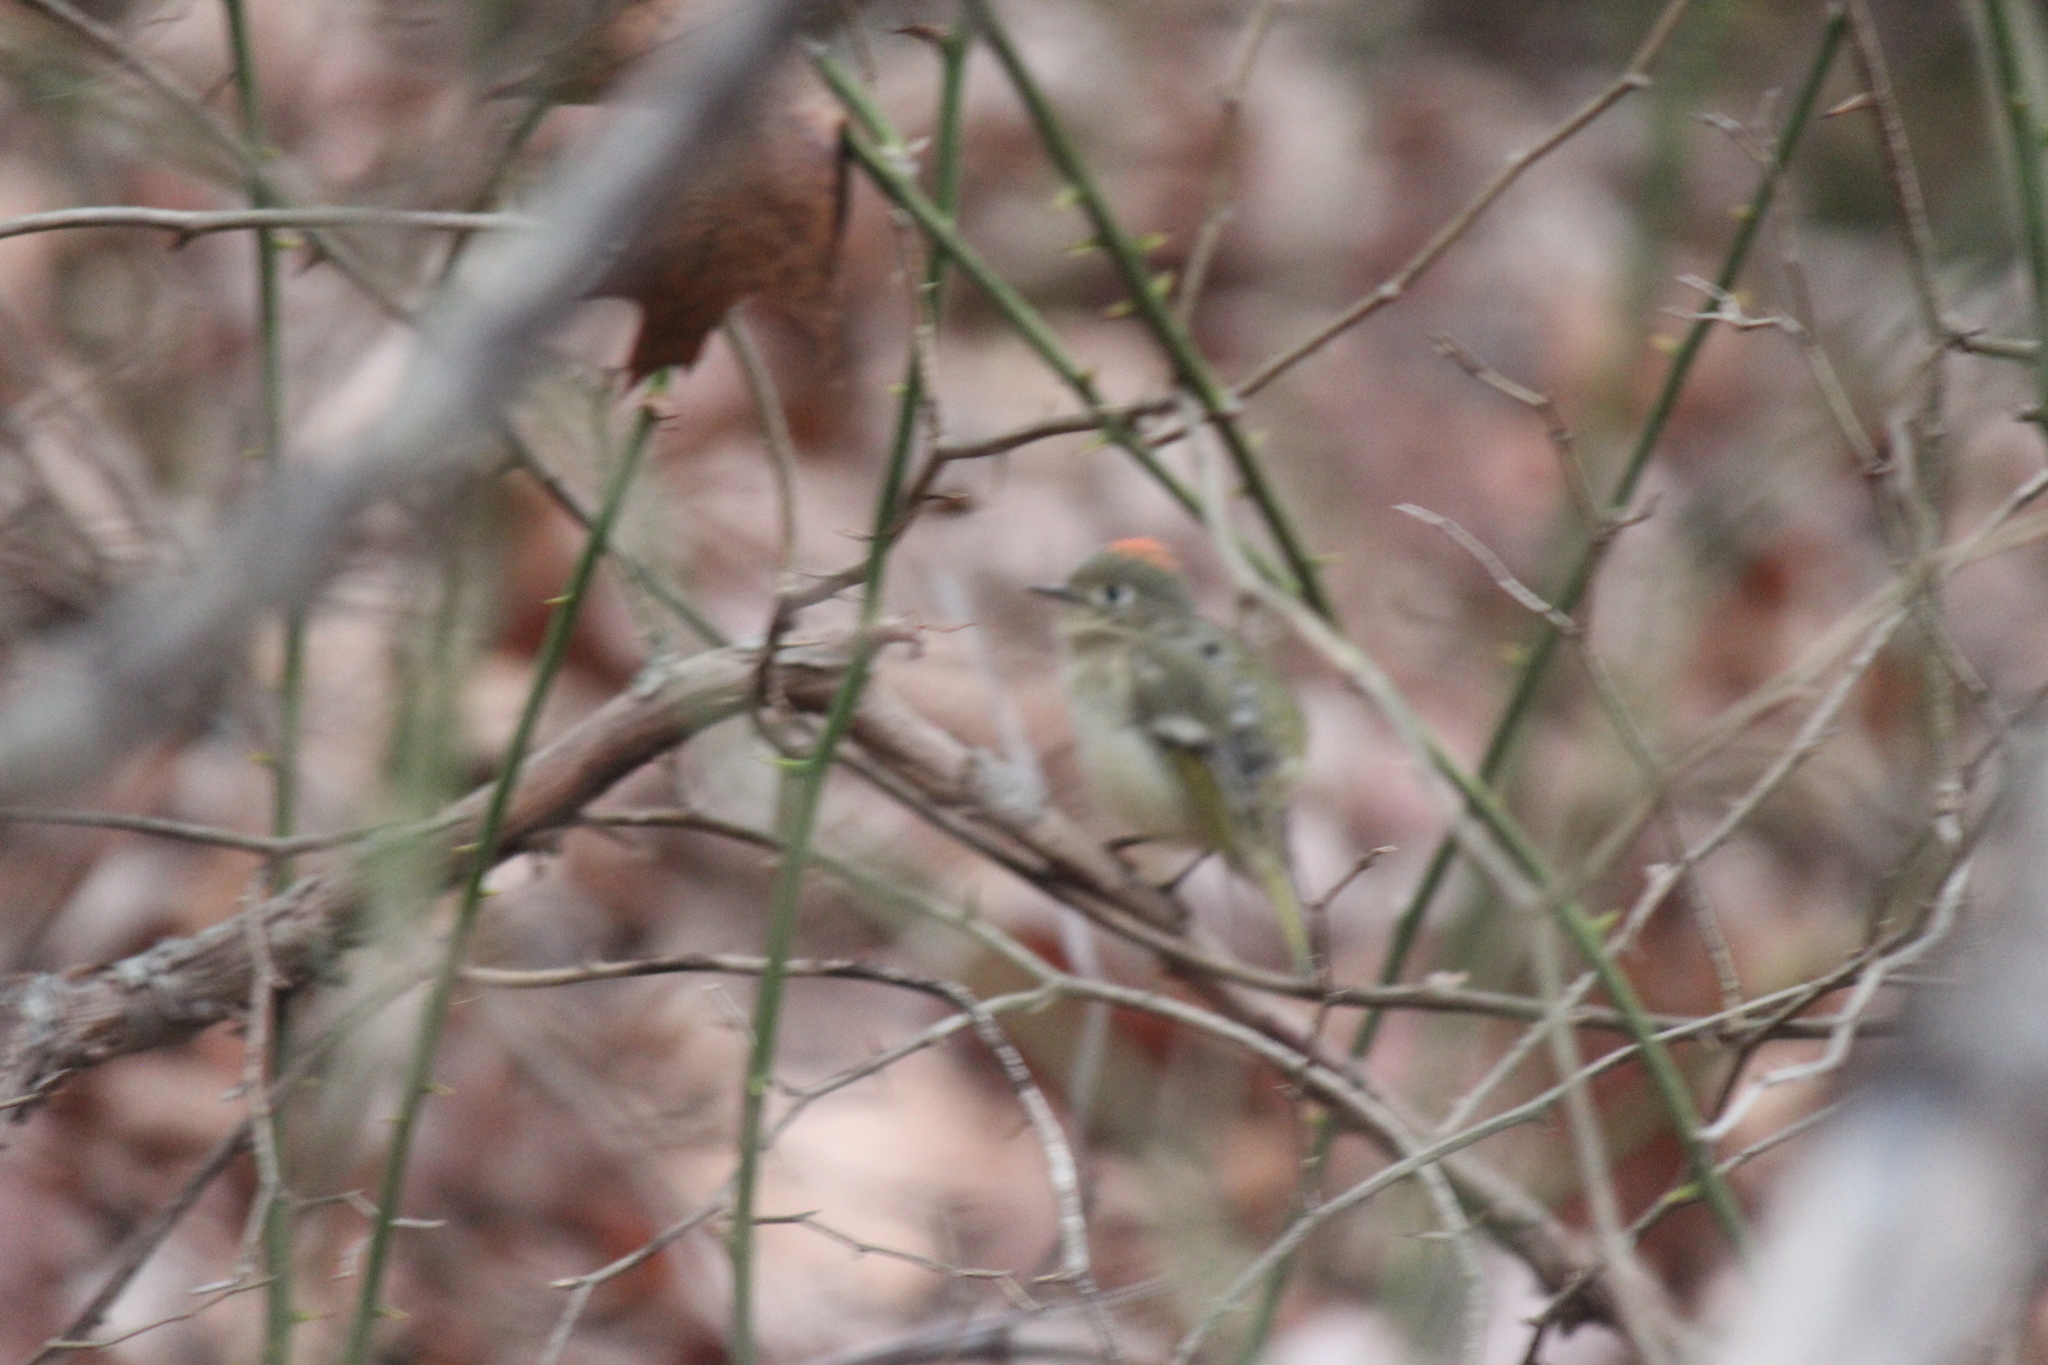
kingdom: Animalia
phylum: Chordata
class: Aves
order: Passeriformes
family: Regulidae
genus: Regulus
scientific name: Regulus calendula
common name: Ruby-crowned kinglet
